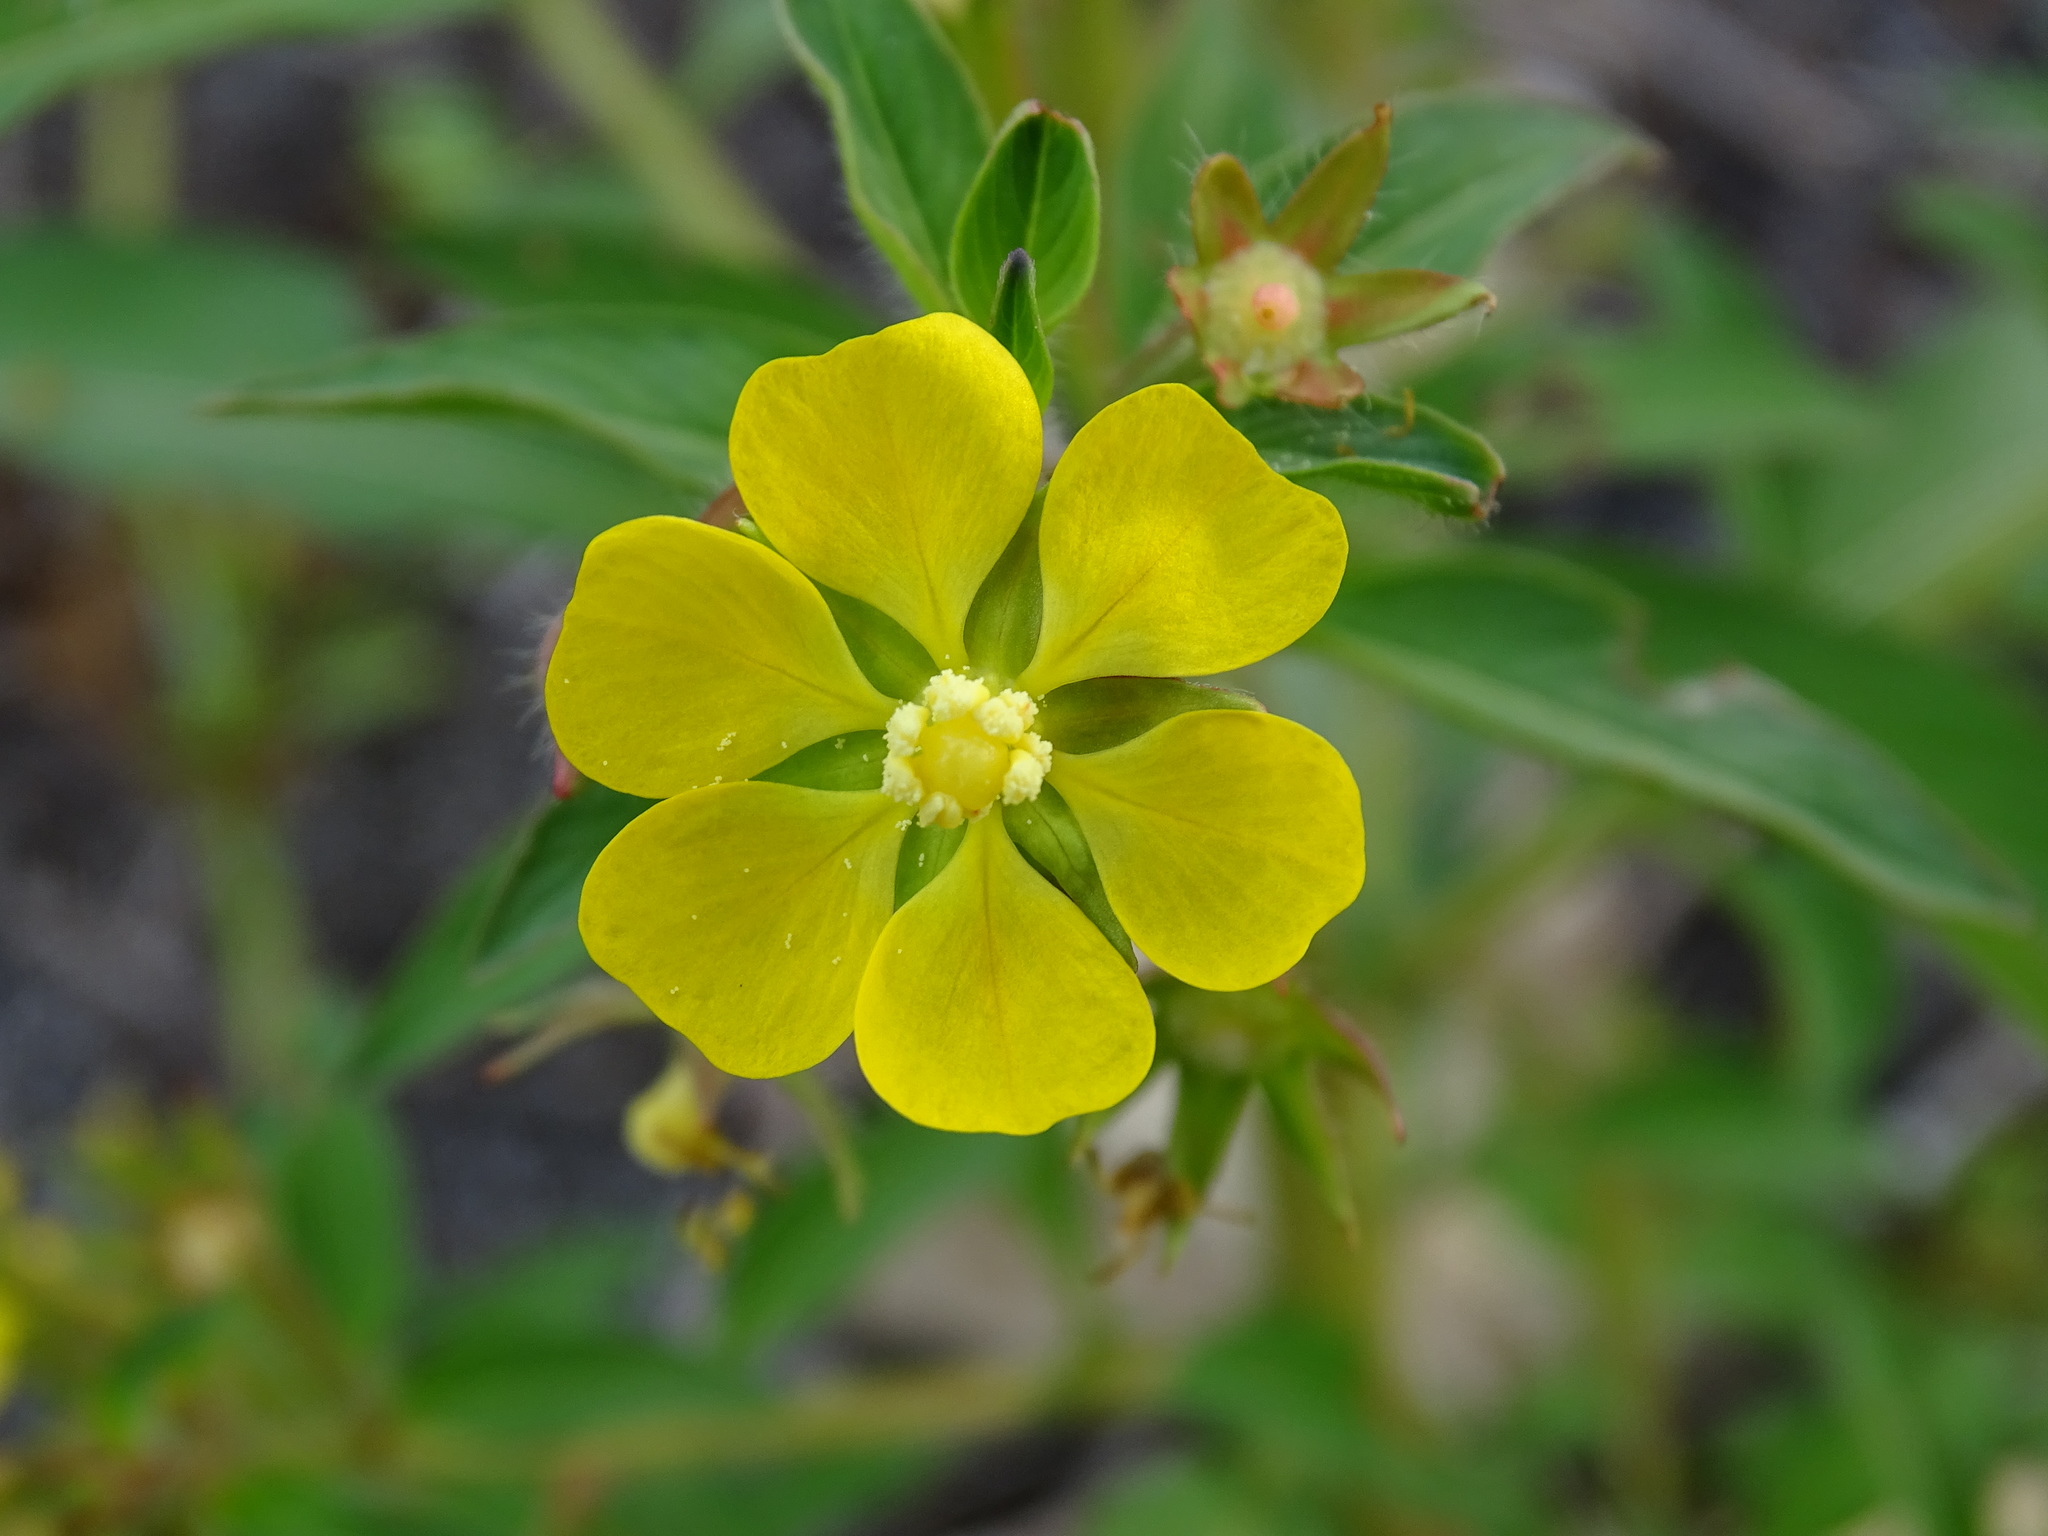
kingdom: Plantae
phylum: Tracheophyta
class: Magnoliopsida
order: Myrtales
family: Onagraceae
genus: Ludwigia
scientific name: Ludwigia leptocarpa
